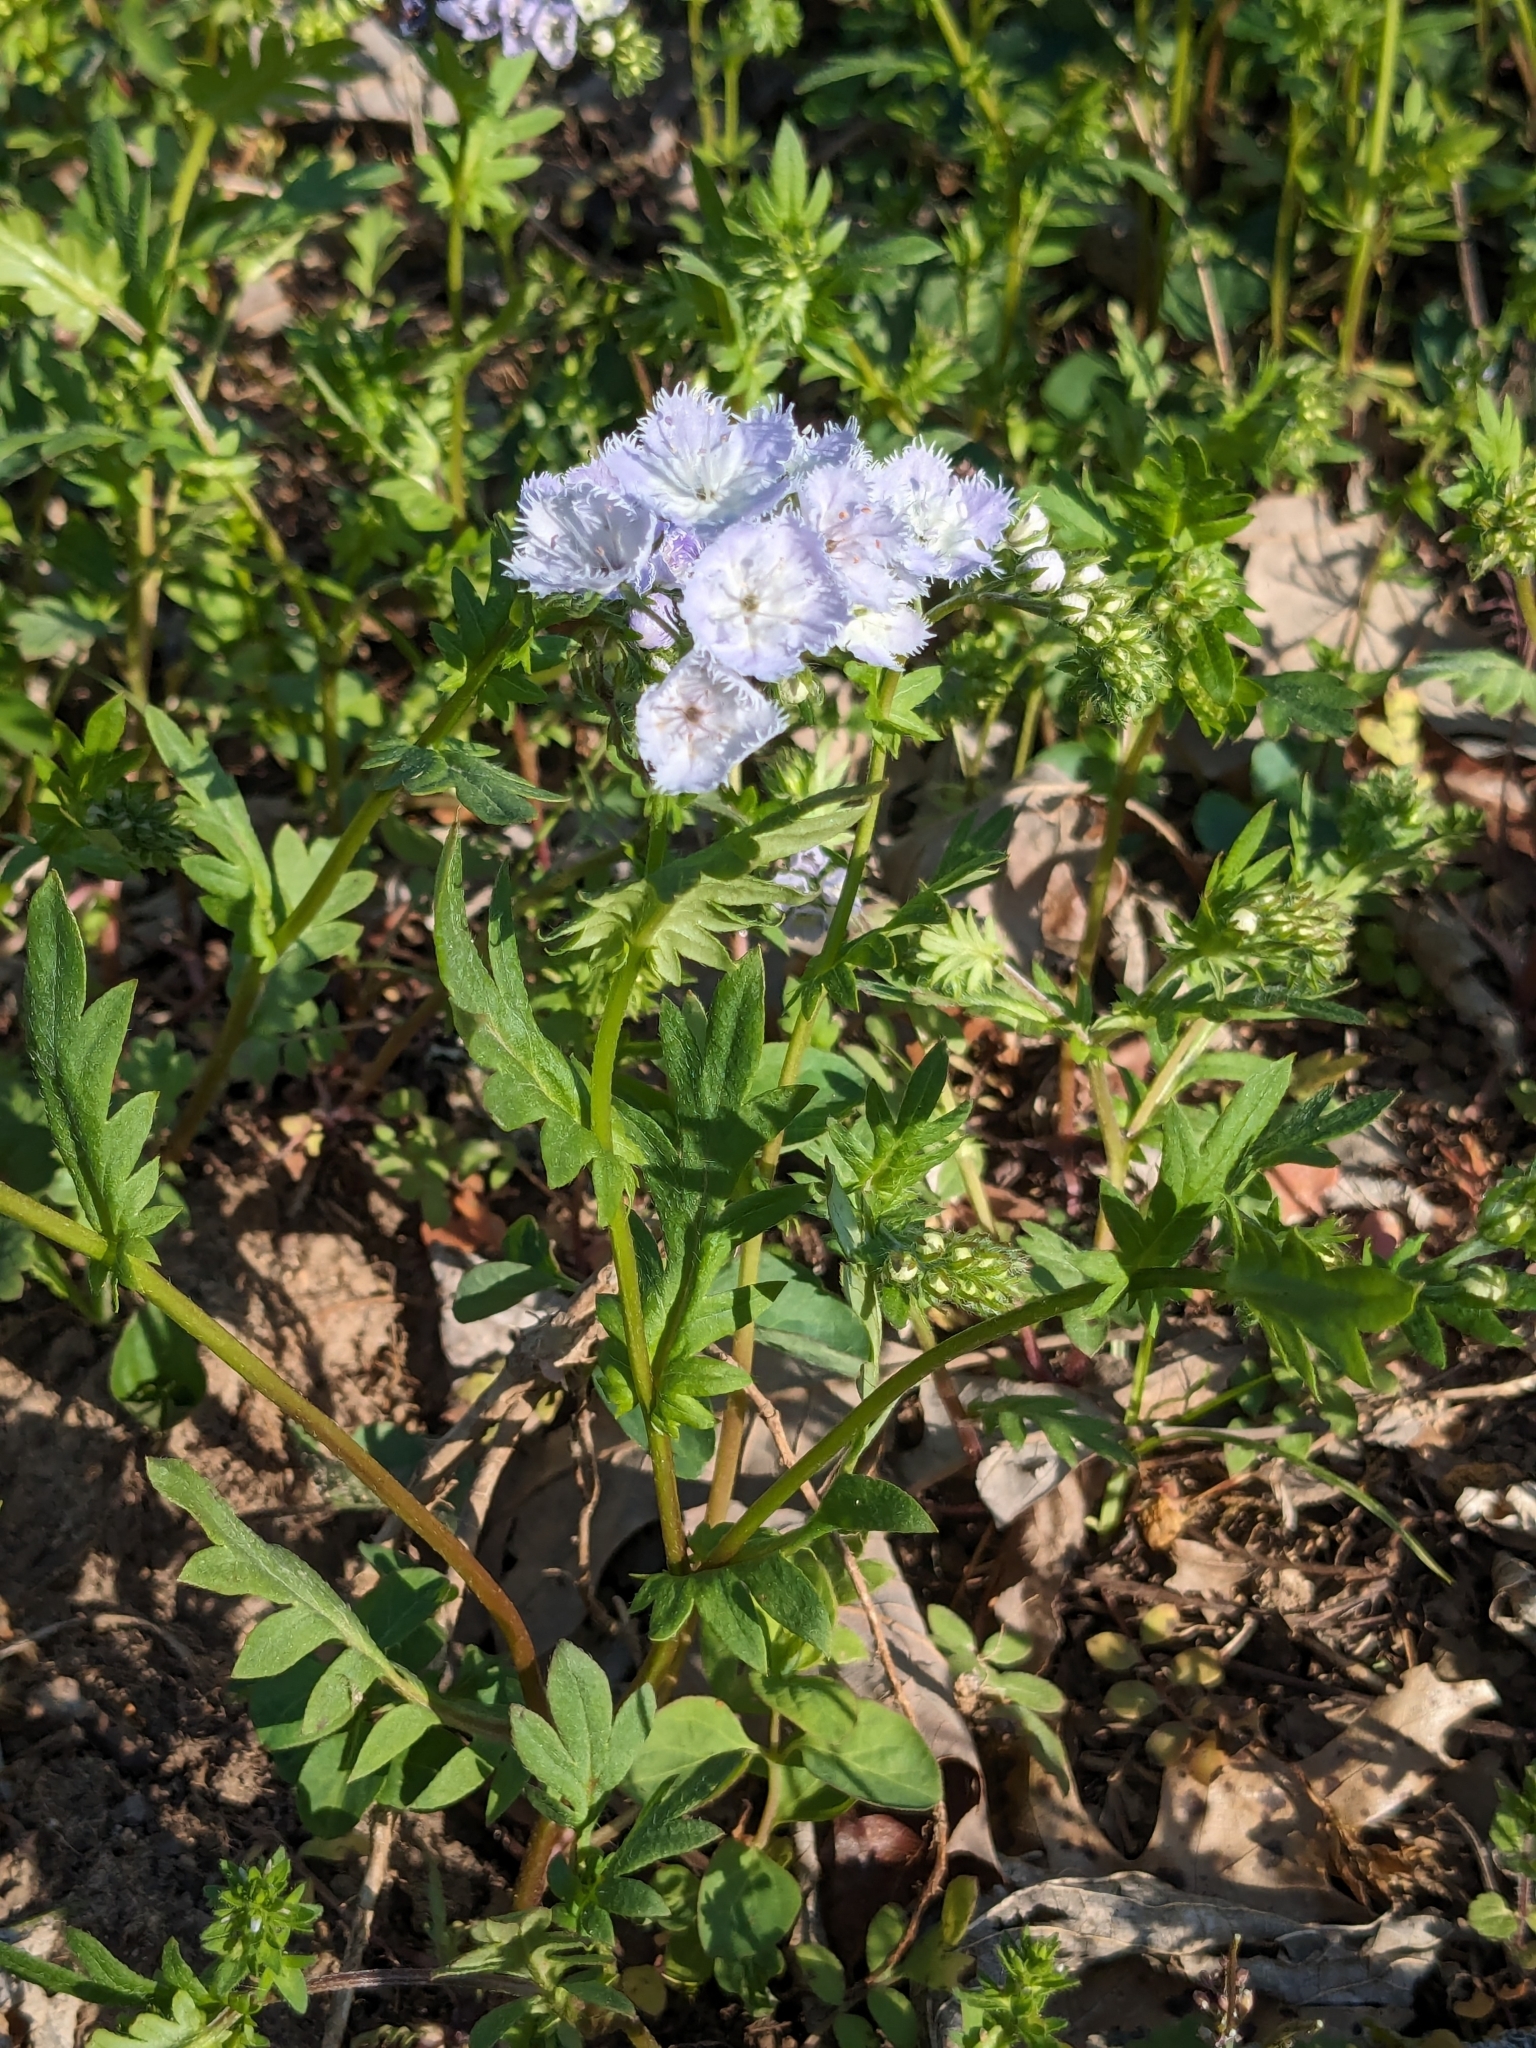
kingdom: Plantae
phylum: Tracheophyta
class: Magnoliopsida
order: Boraginales
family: Hydrophyllaceae
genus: Phacelia
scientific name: Phacelia purshii
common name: Miami-mist
